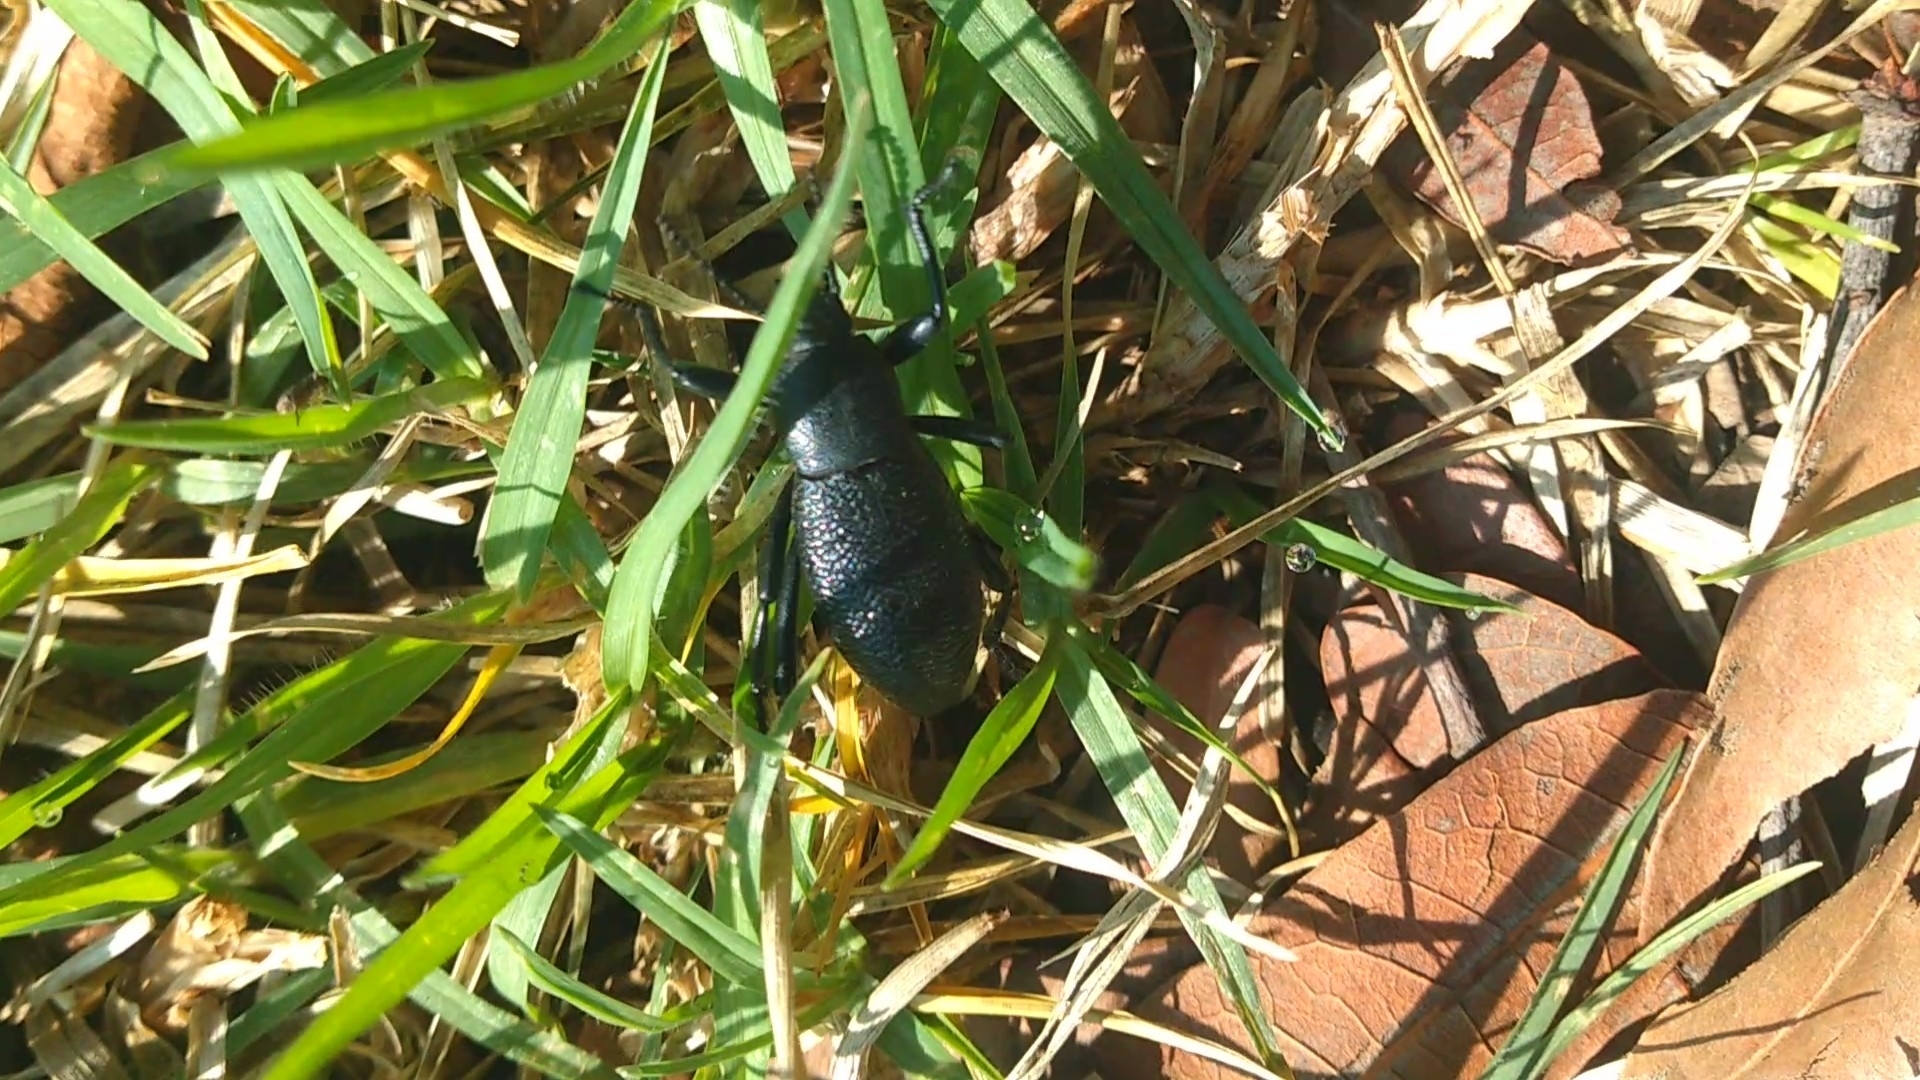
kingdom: Animalia
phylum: Arthropoda
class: Insecta
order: Coleoptera
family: Tenebrionidae
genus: Eleodes
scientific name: Eleodes ruida
